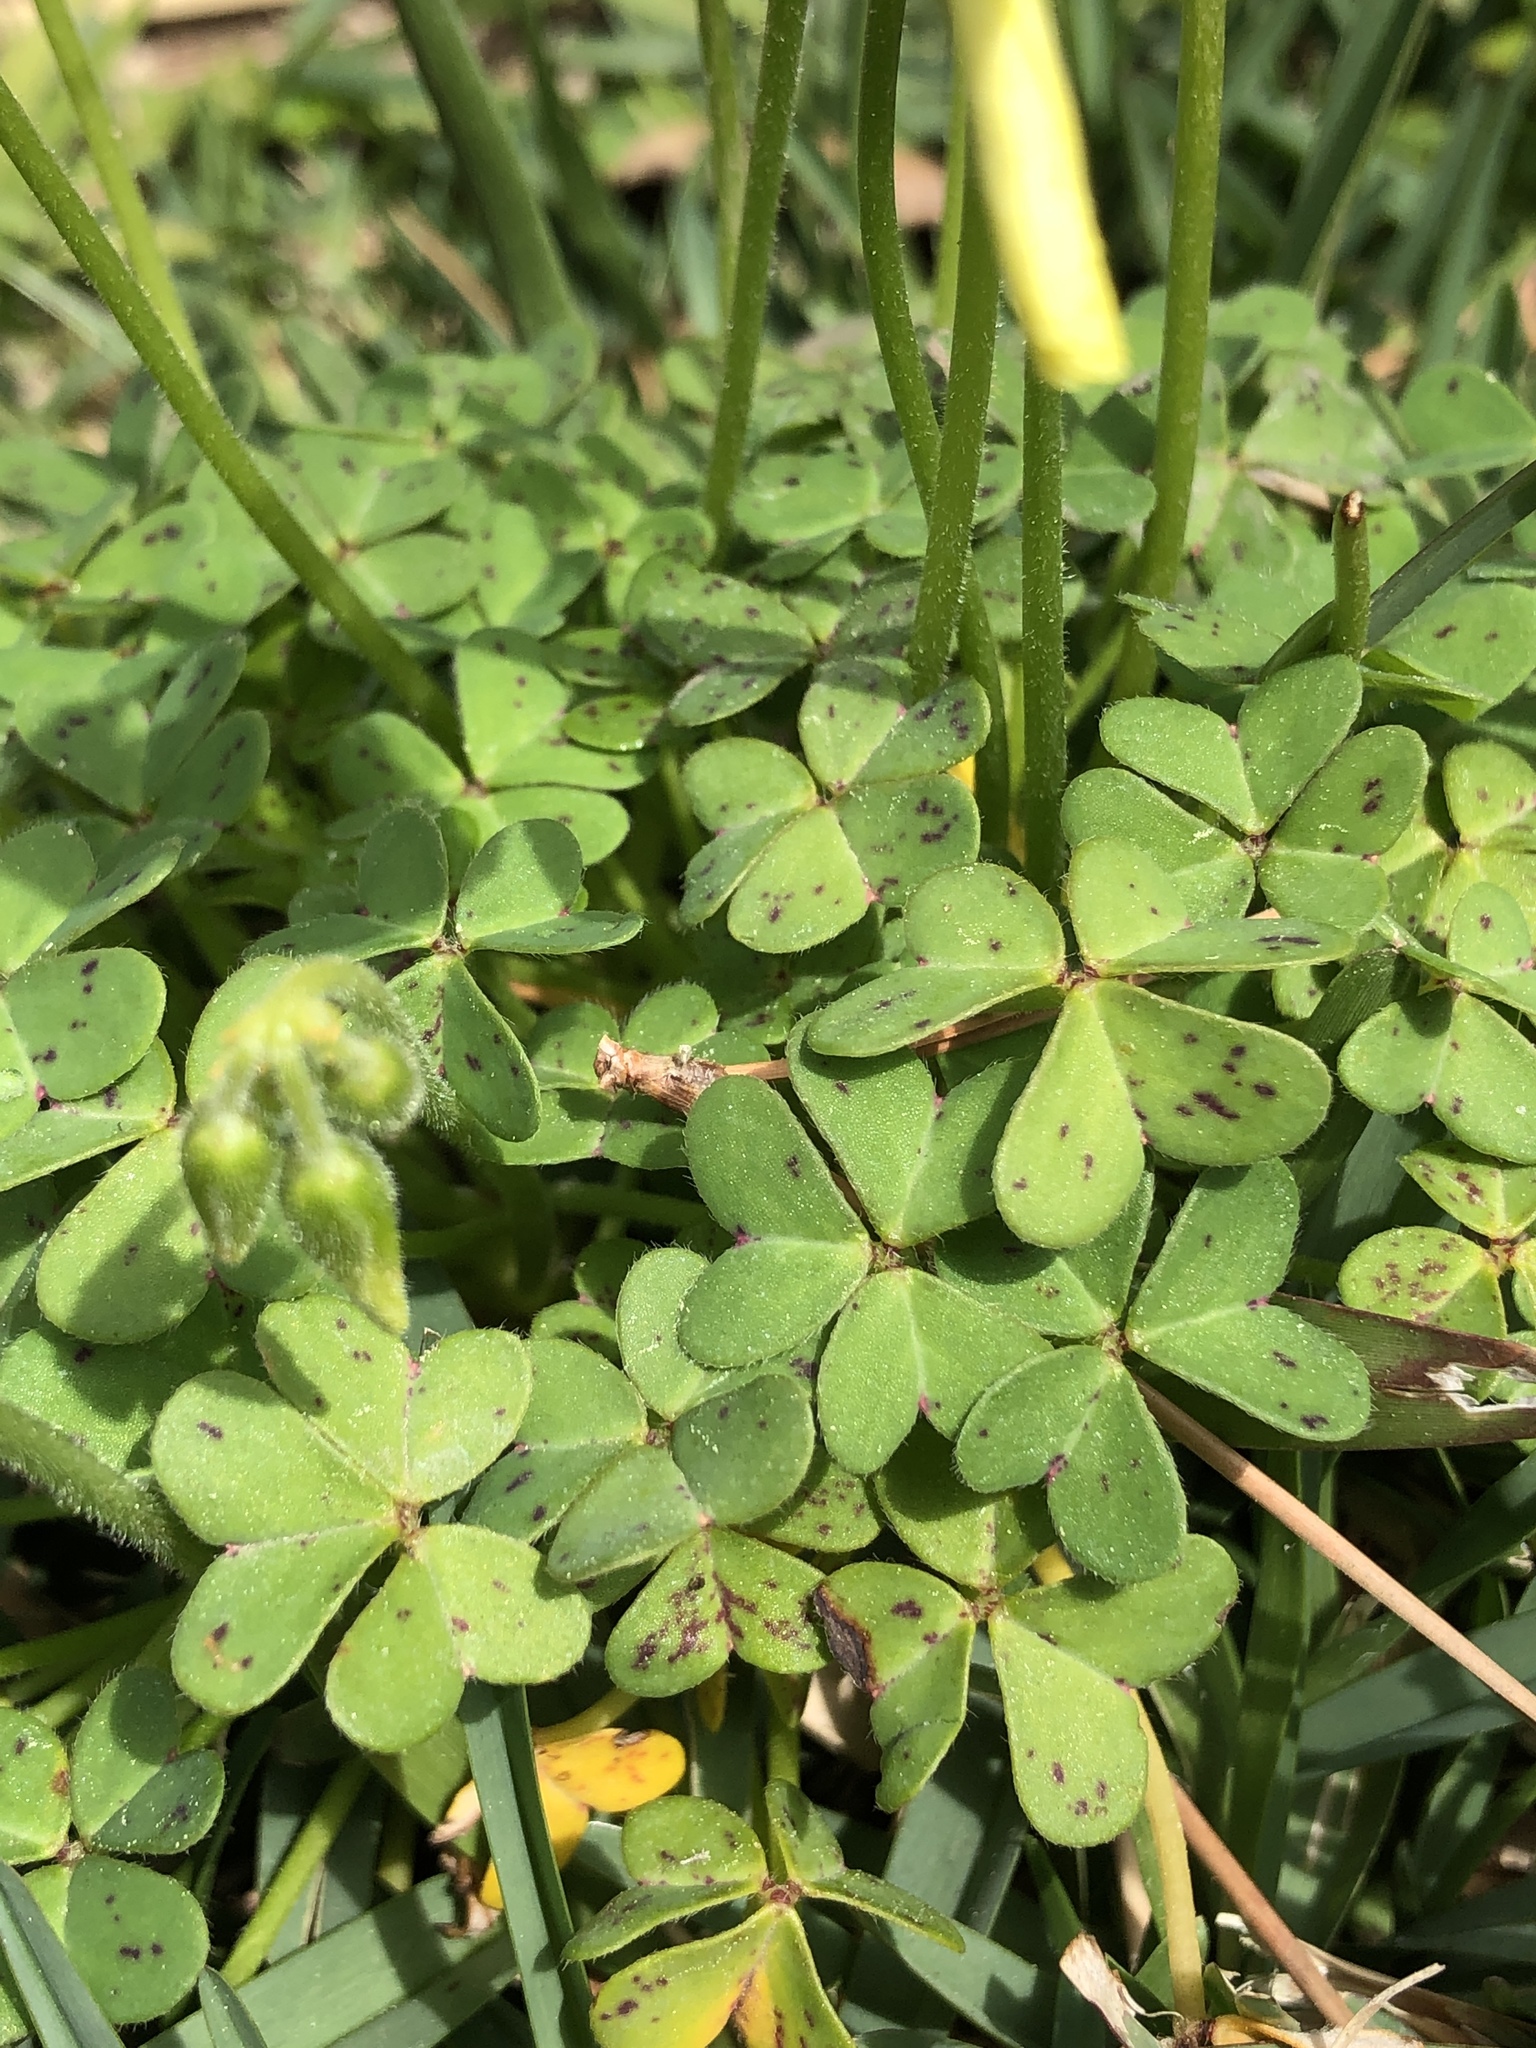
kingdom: Plantae
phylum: Tracheophyta
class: Magnoliopsida
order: Oxalidales
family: Oxalidaceae
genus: Oxalis
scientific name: Oxalis pes-caprae
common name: Bermuda-buttercup
